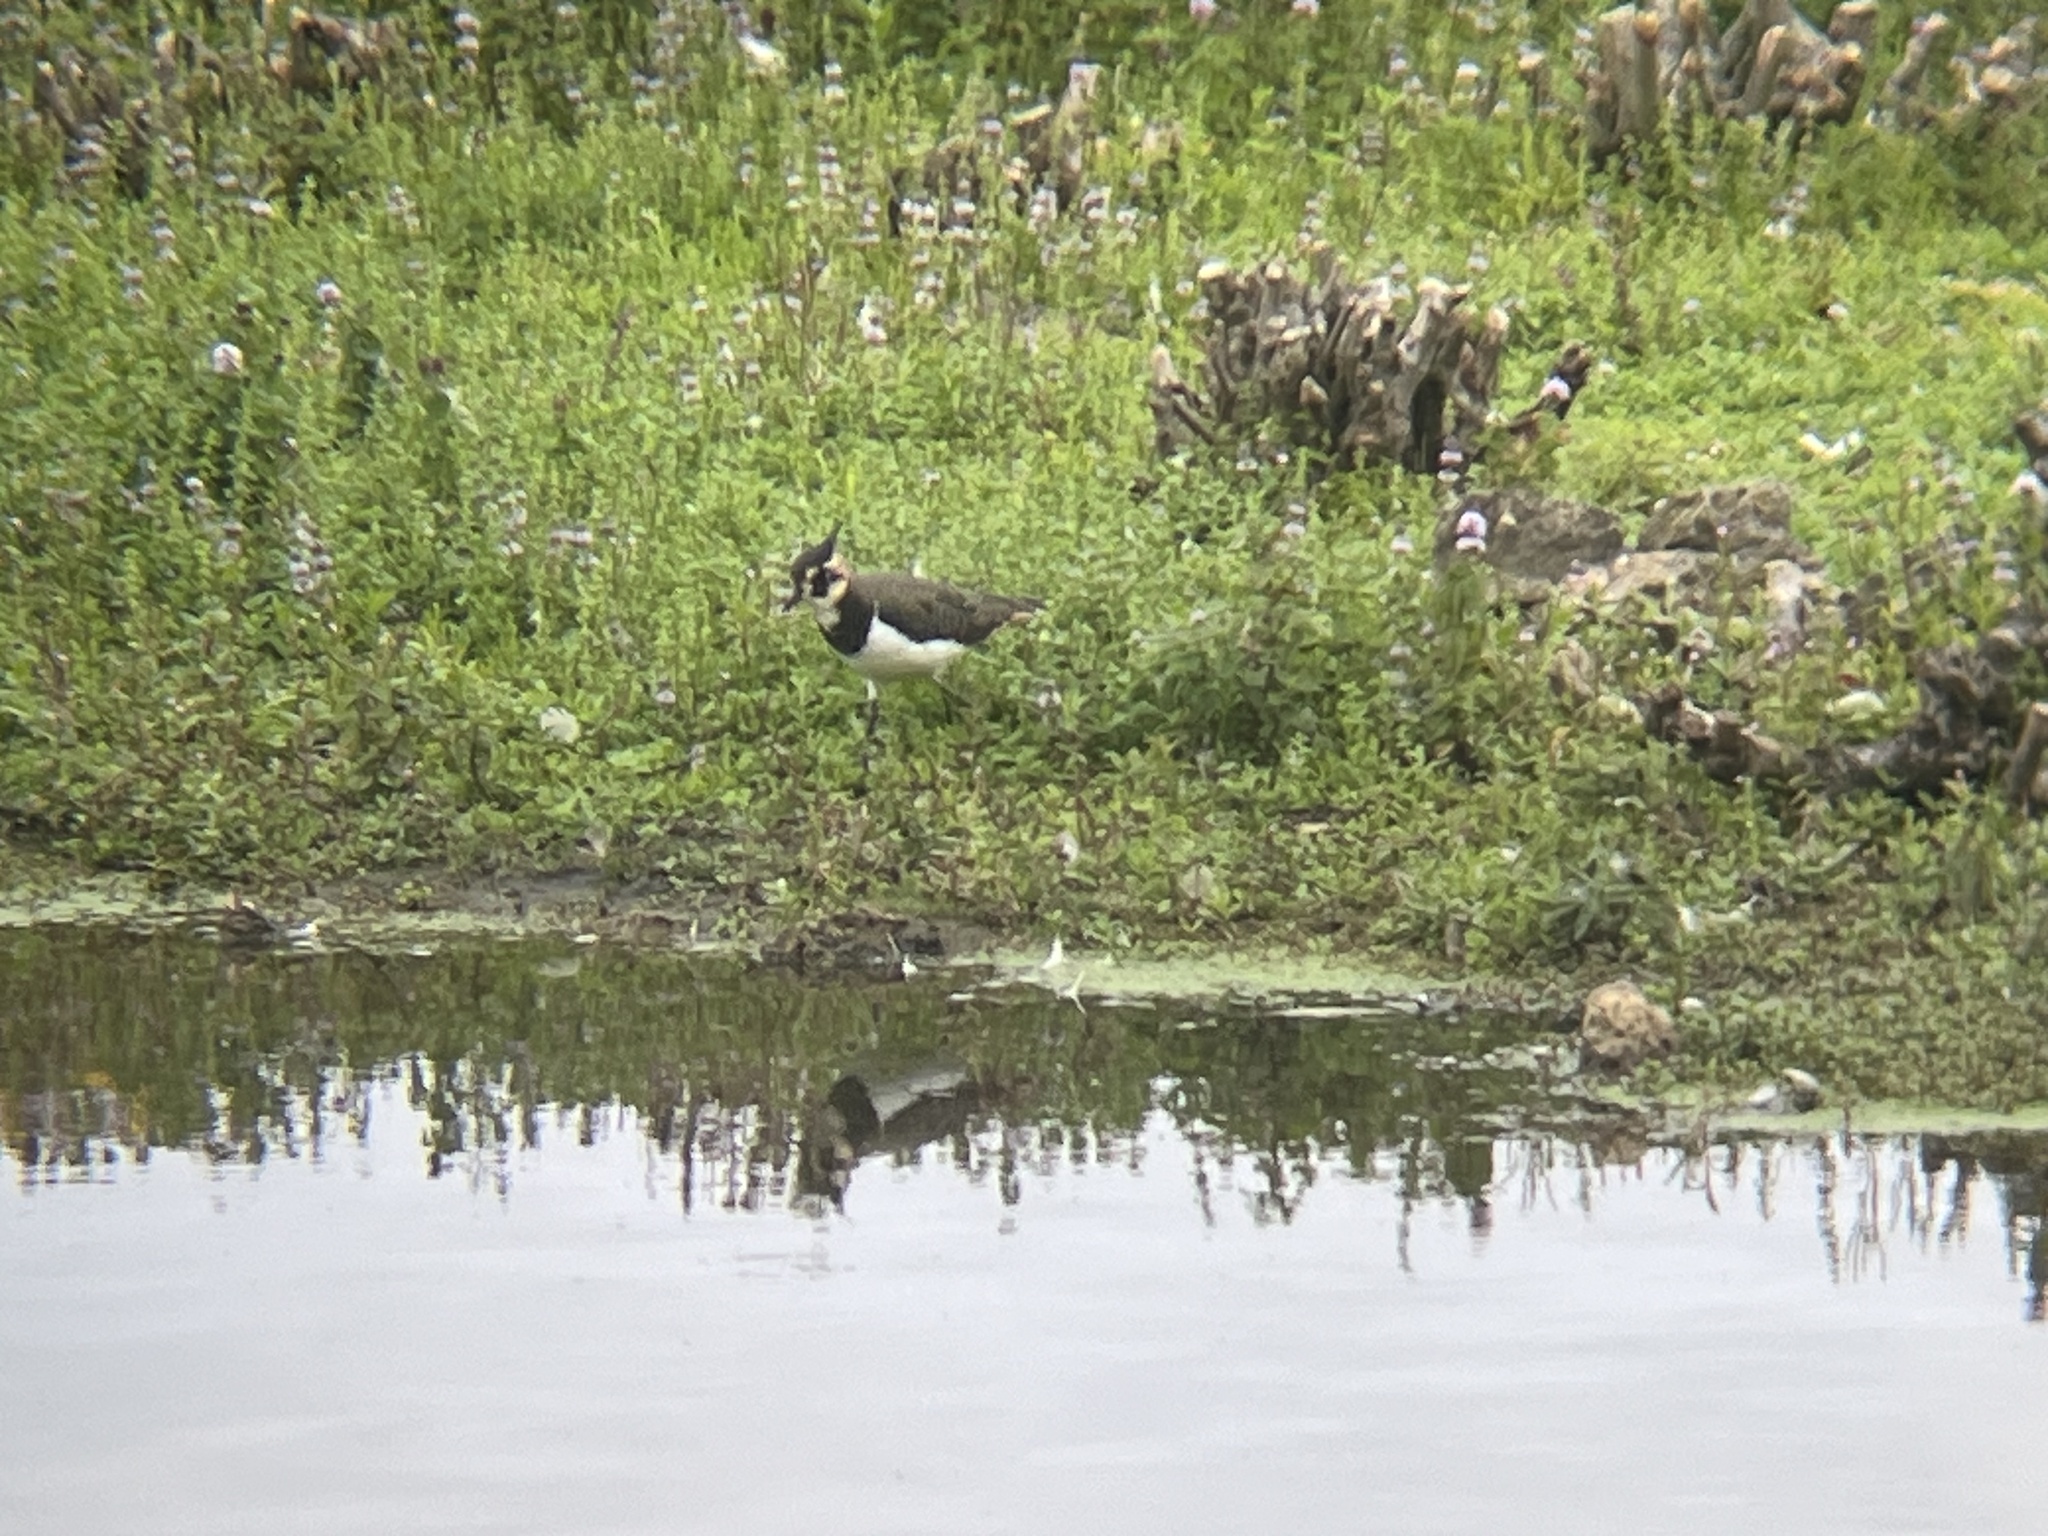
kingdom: Animalia
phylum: Chordata
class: Aves
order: Charadriiformes
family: Charadriidae
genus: Vanellus
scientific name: Vanellus vanellus
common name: Northern lapwing
